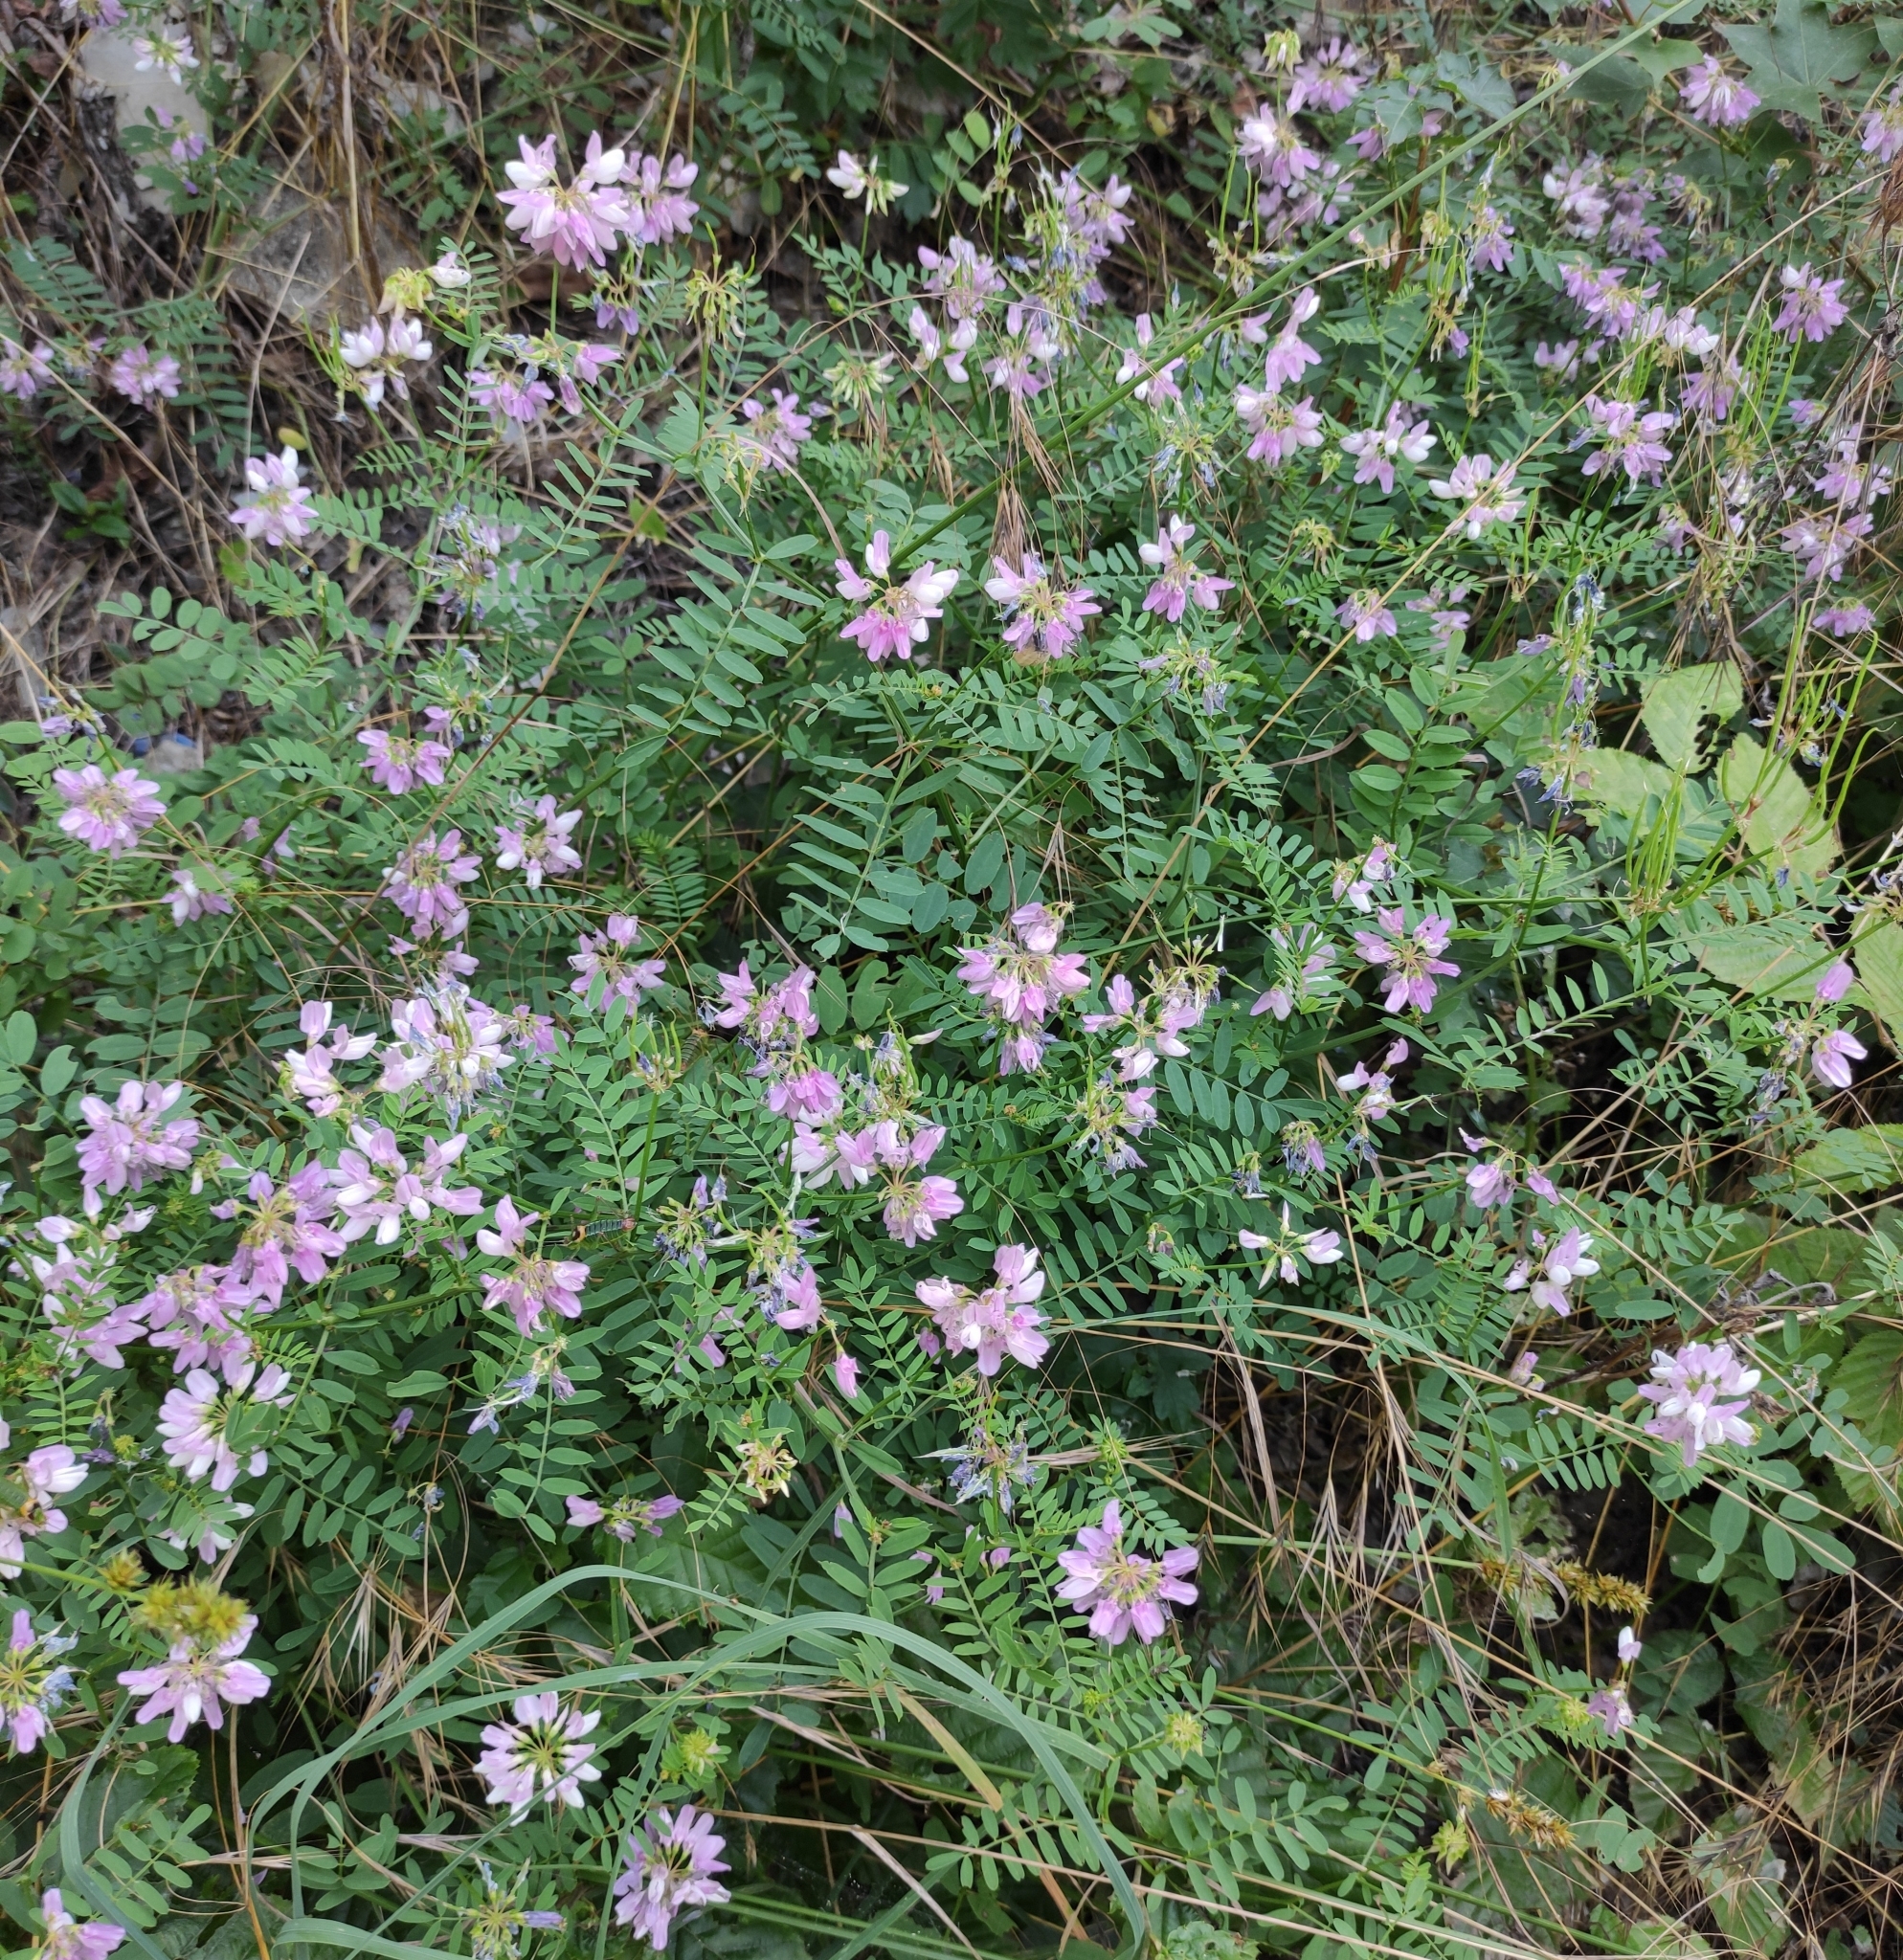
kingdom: Plantae
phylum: Tracheophyta
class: Magnoliopsida
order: Fabales
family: Fabaceae
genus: Coronilla
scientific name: Coronilla varia
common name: Crownvetch
